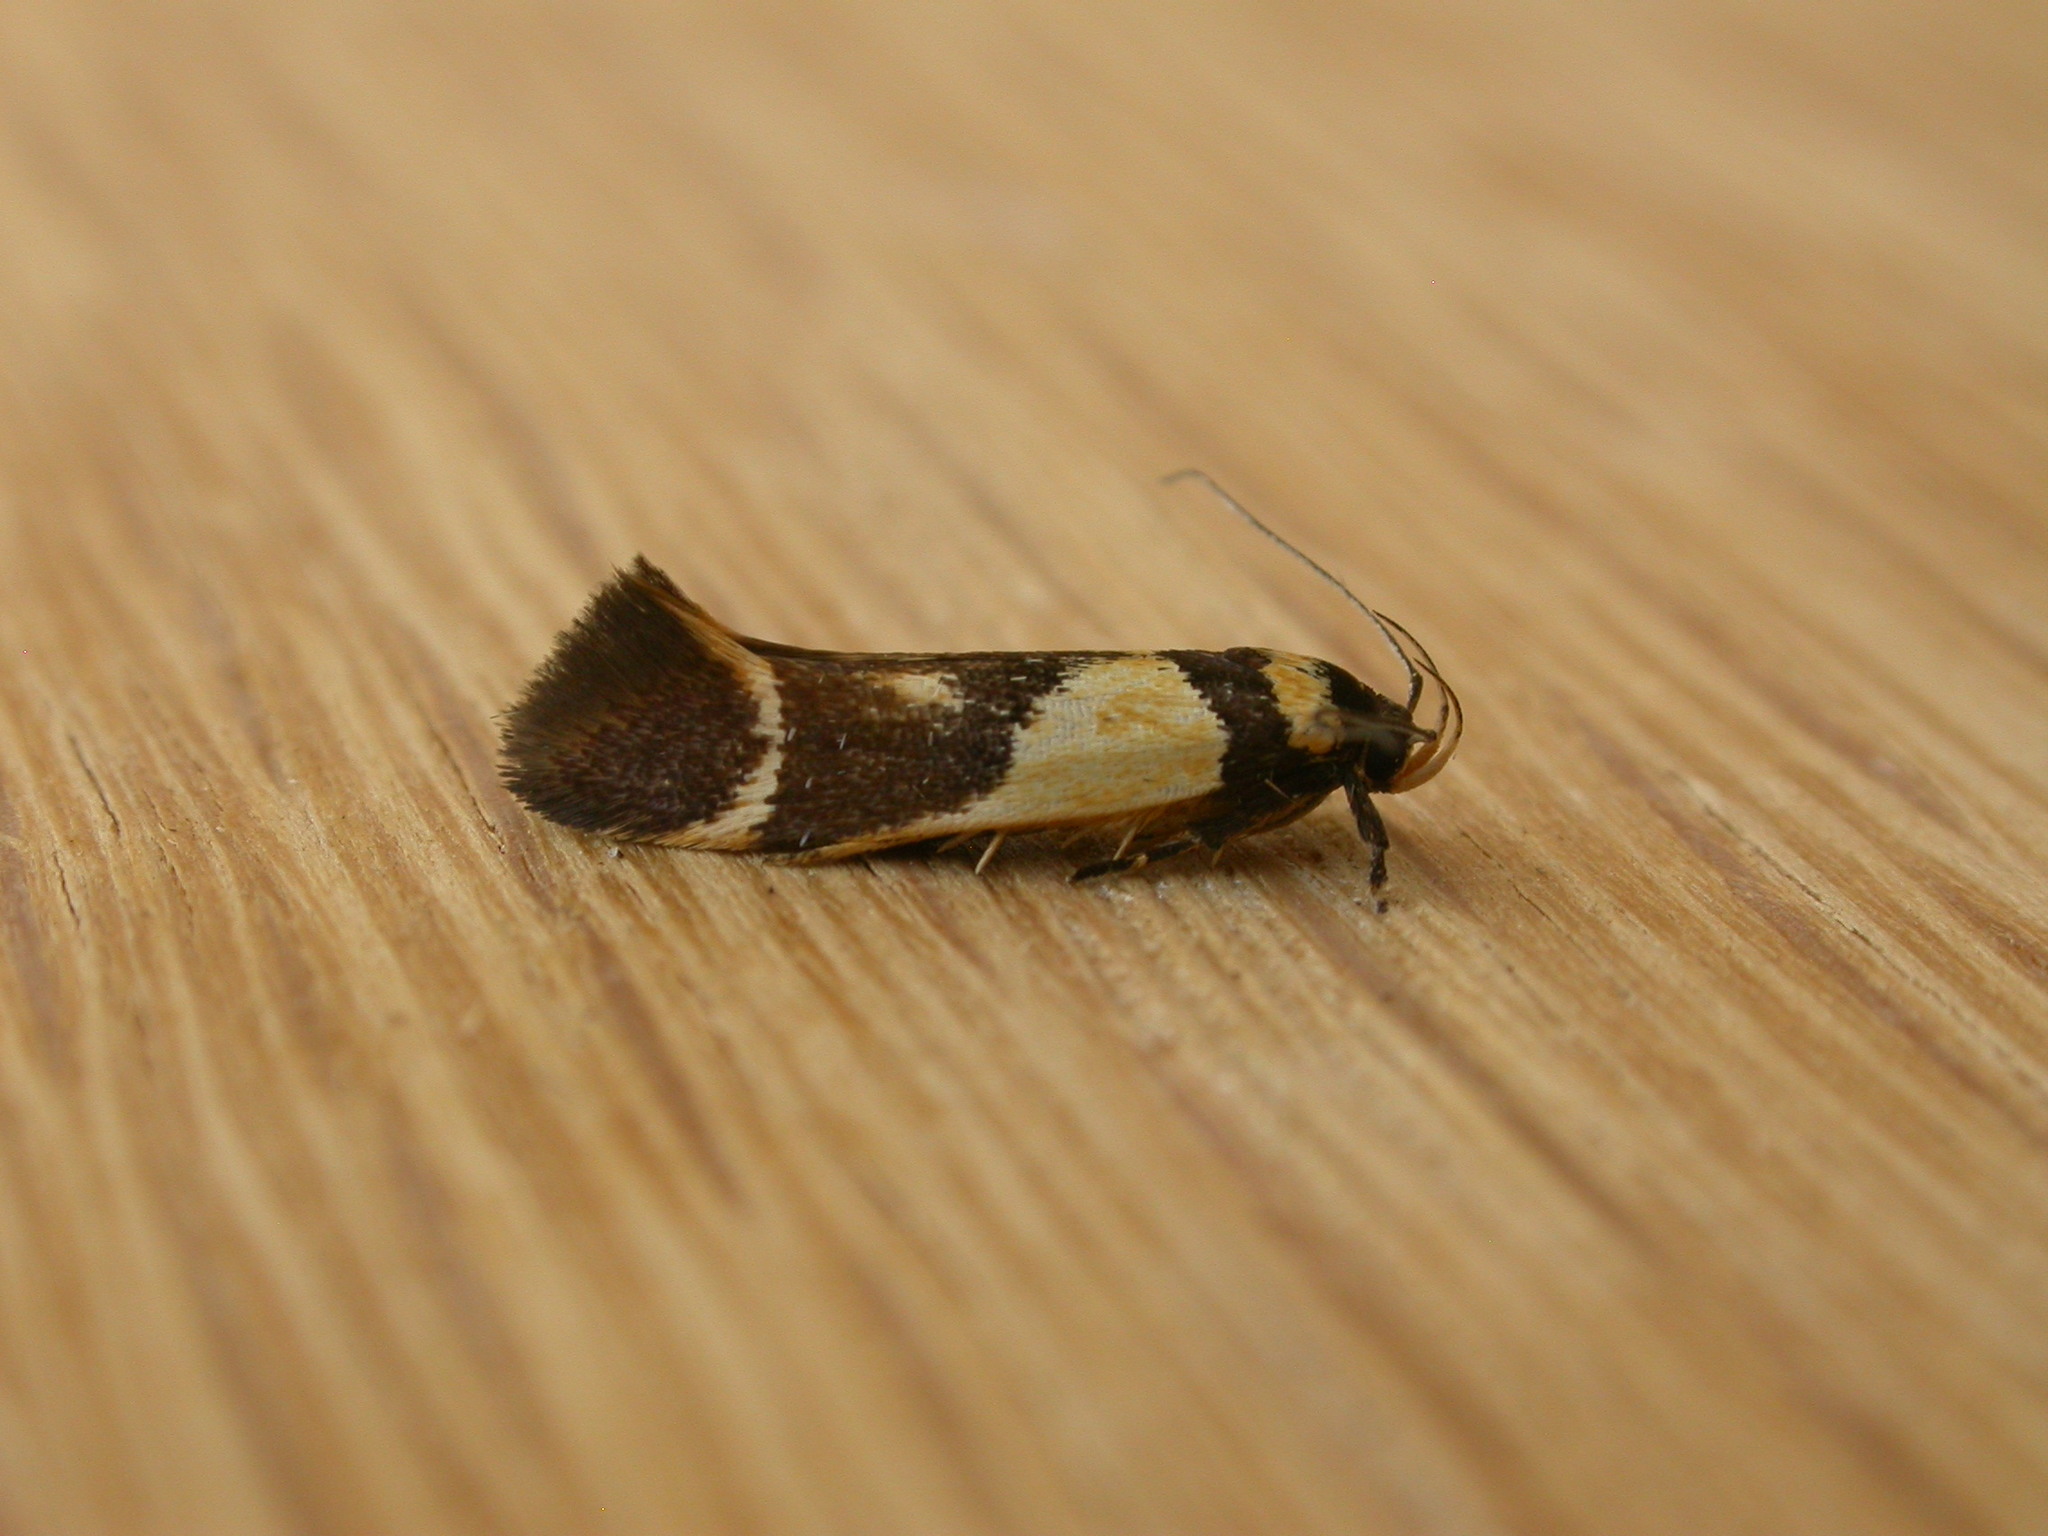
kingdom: Animalia
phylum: Arthropoda
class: Insecta
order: Lepidoptera
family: Cosmopterigidae
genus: Macrobathra
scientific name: Macrobathra chrysotoxa
